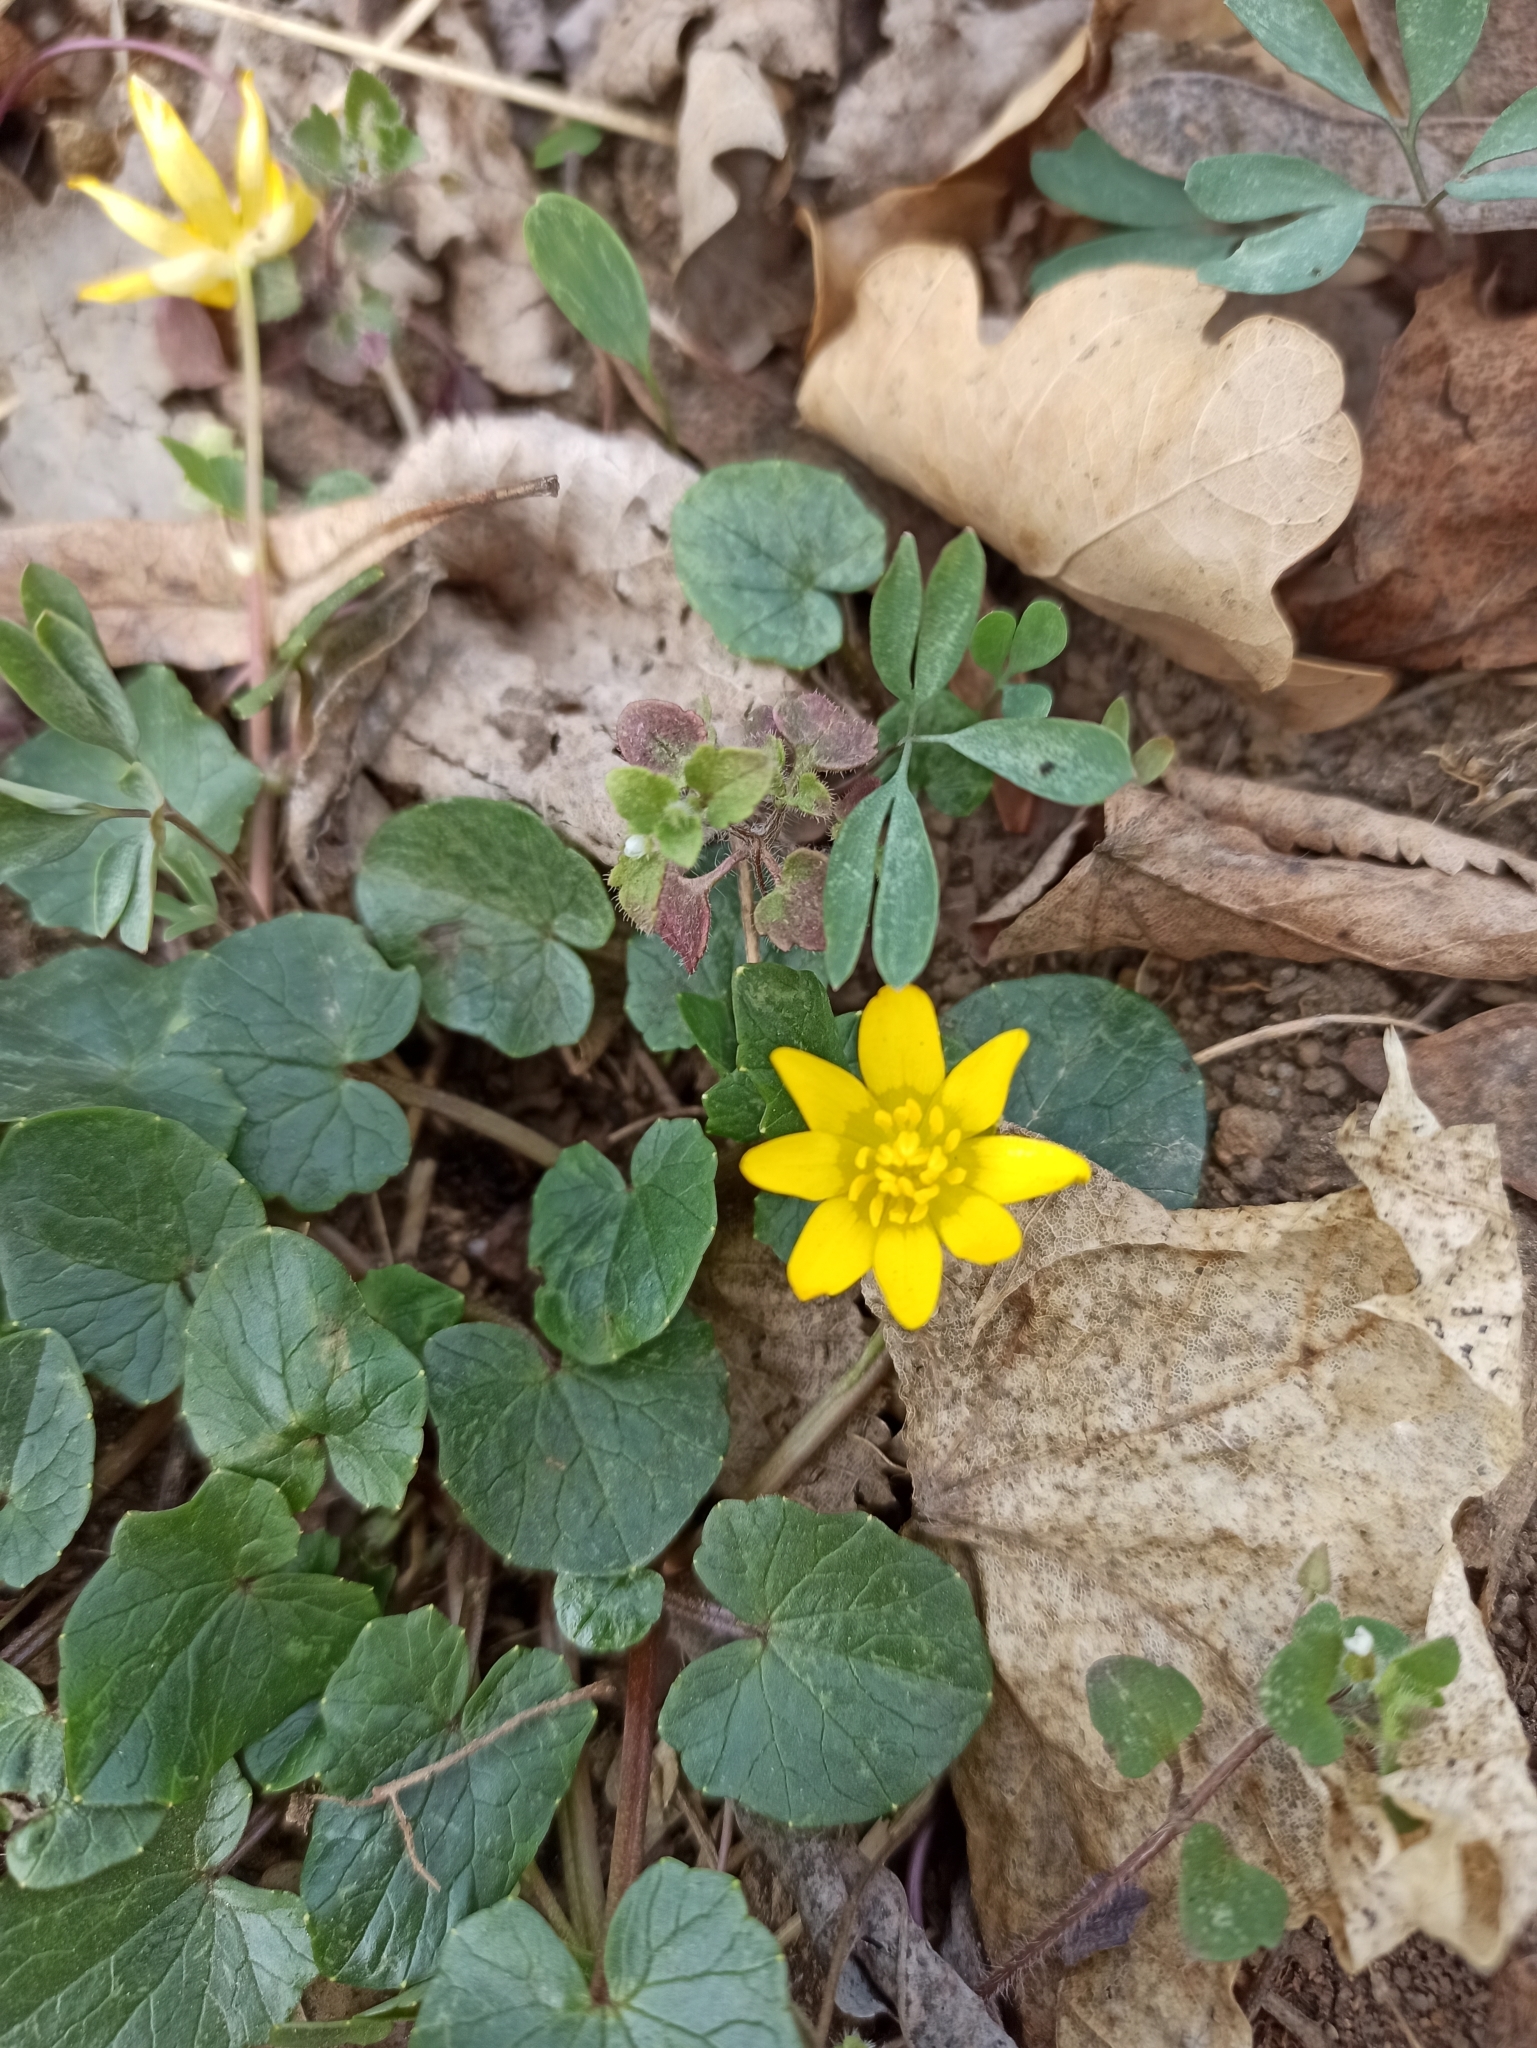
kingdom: Plantae
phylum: Tracheophyta
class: Magnoliopsida
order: Ranunculales
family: Ranunculaceae
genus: Ficaria
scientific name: Ficaria verna
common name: Lesser celandine
